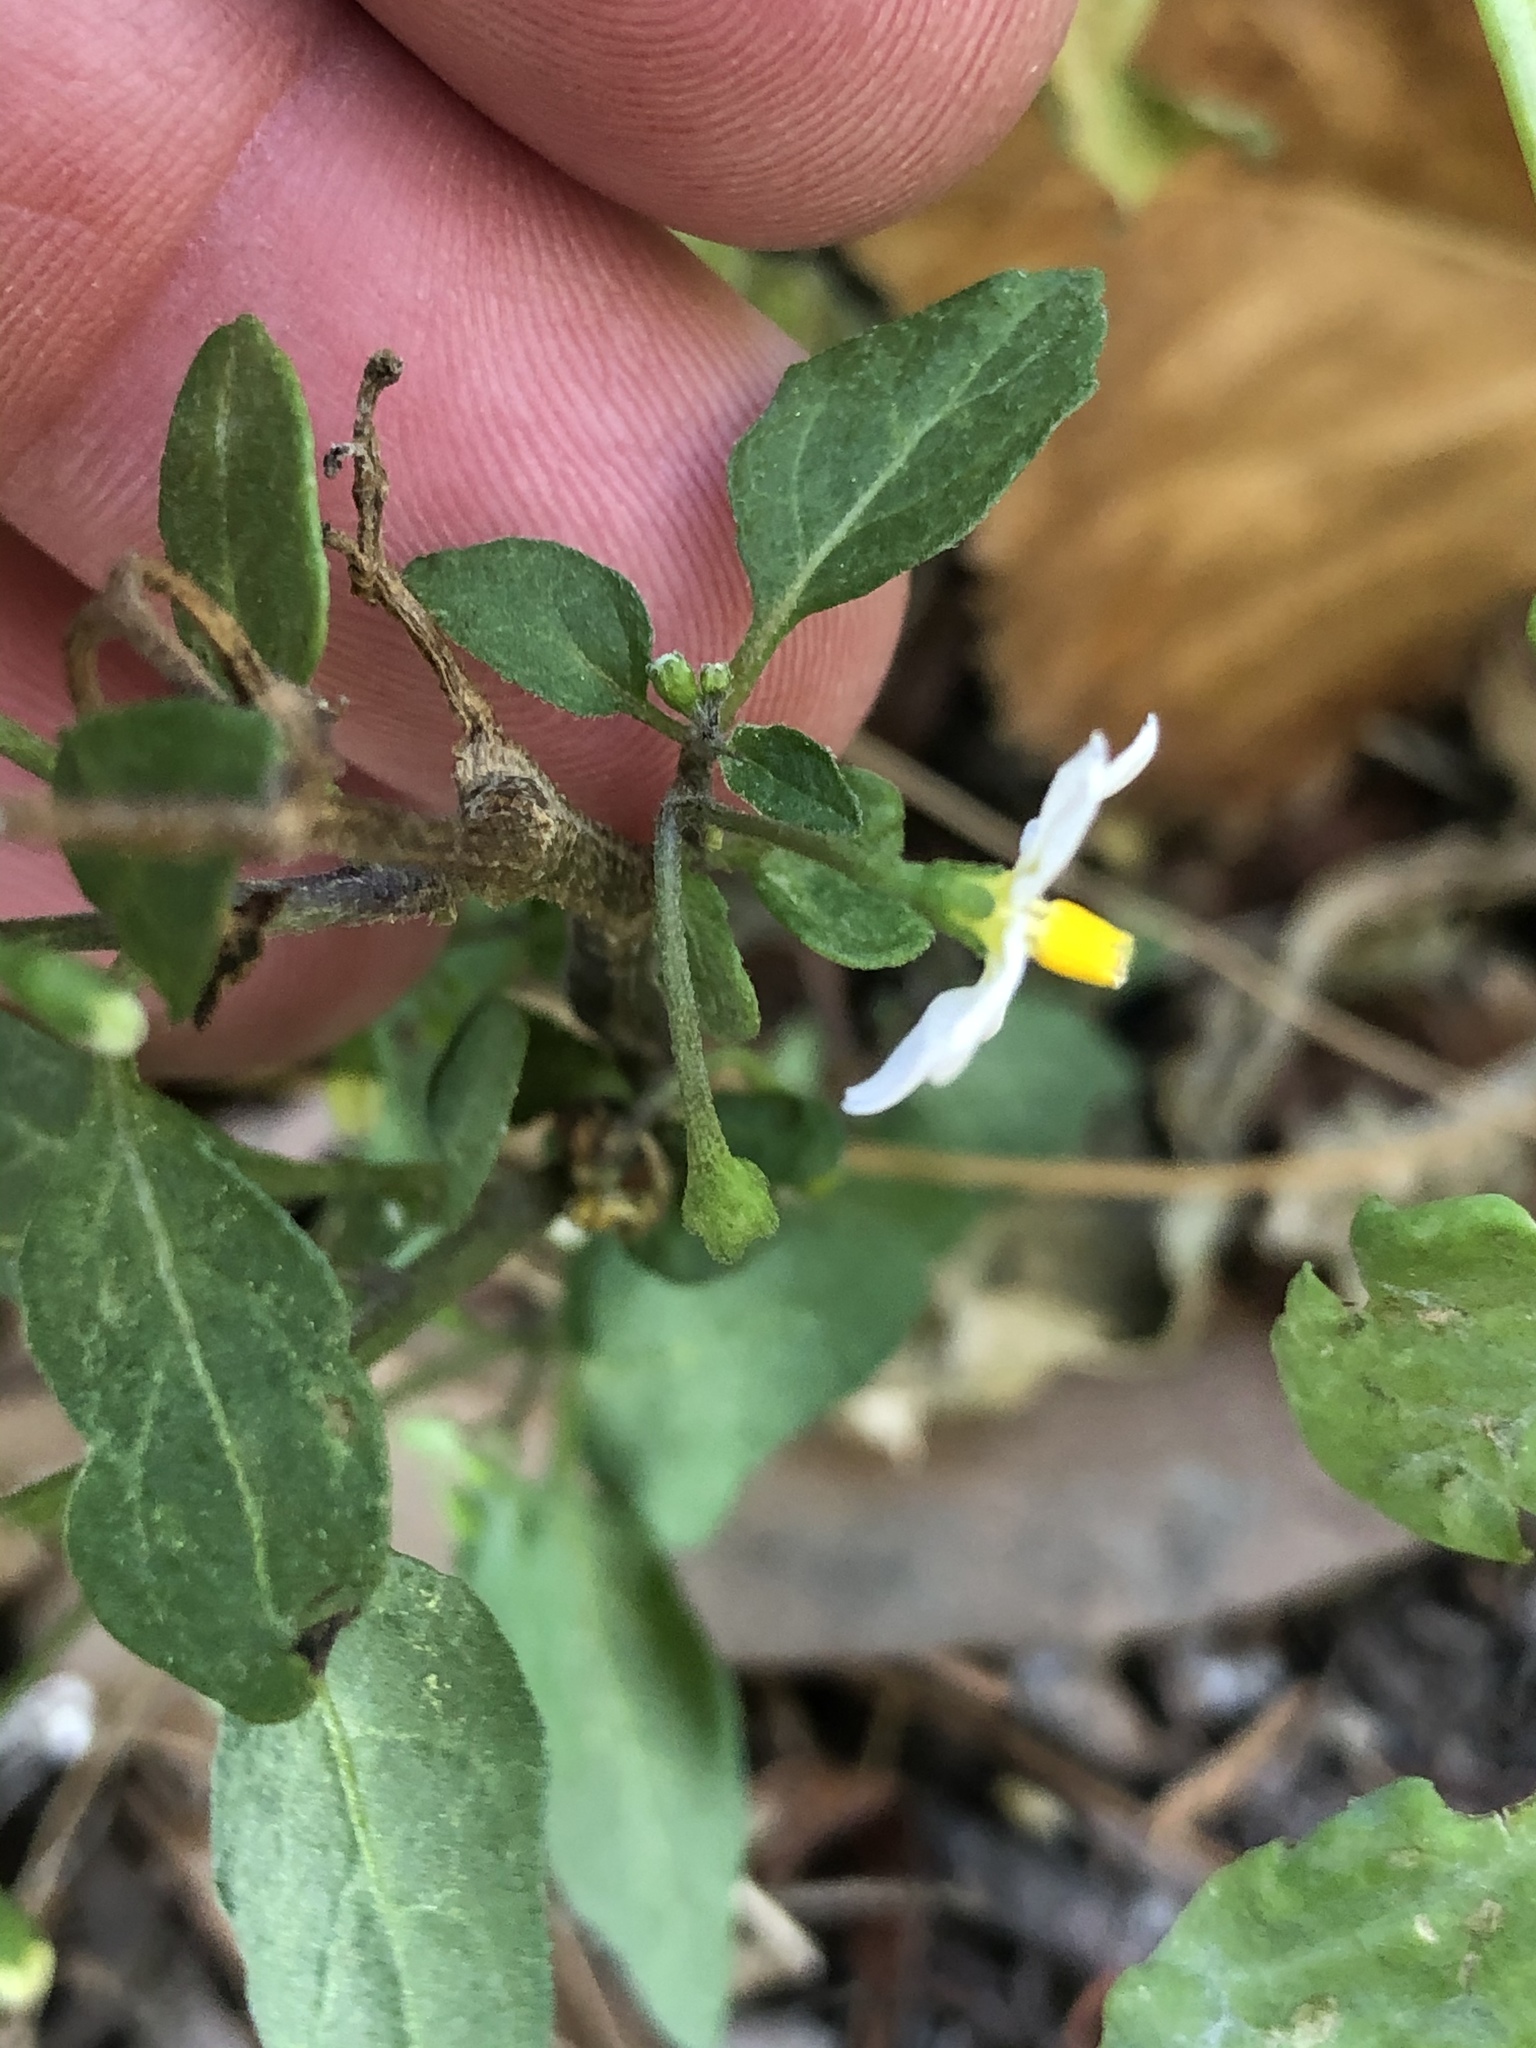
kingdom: Plantae
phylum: Tracheophyta
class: Magnoliopsida
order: Solanales
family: Solanaceae
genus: Solanum
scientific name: Solanum nigrum
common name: Black nightshade
